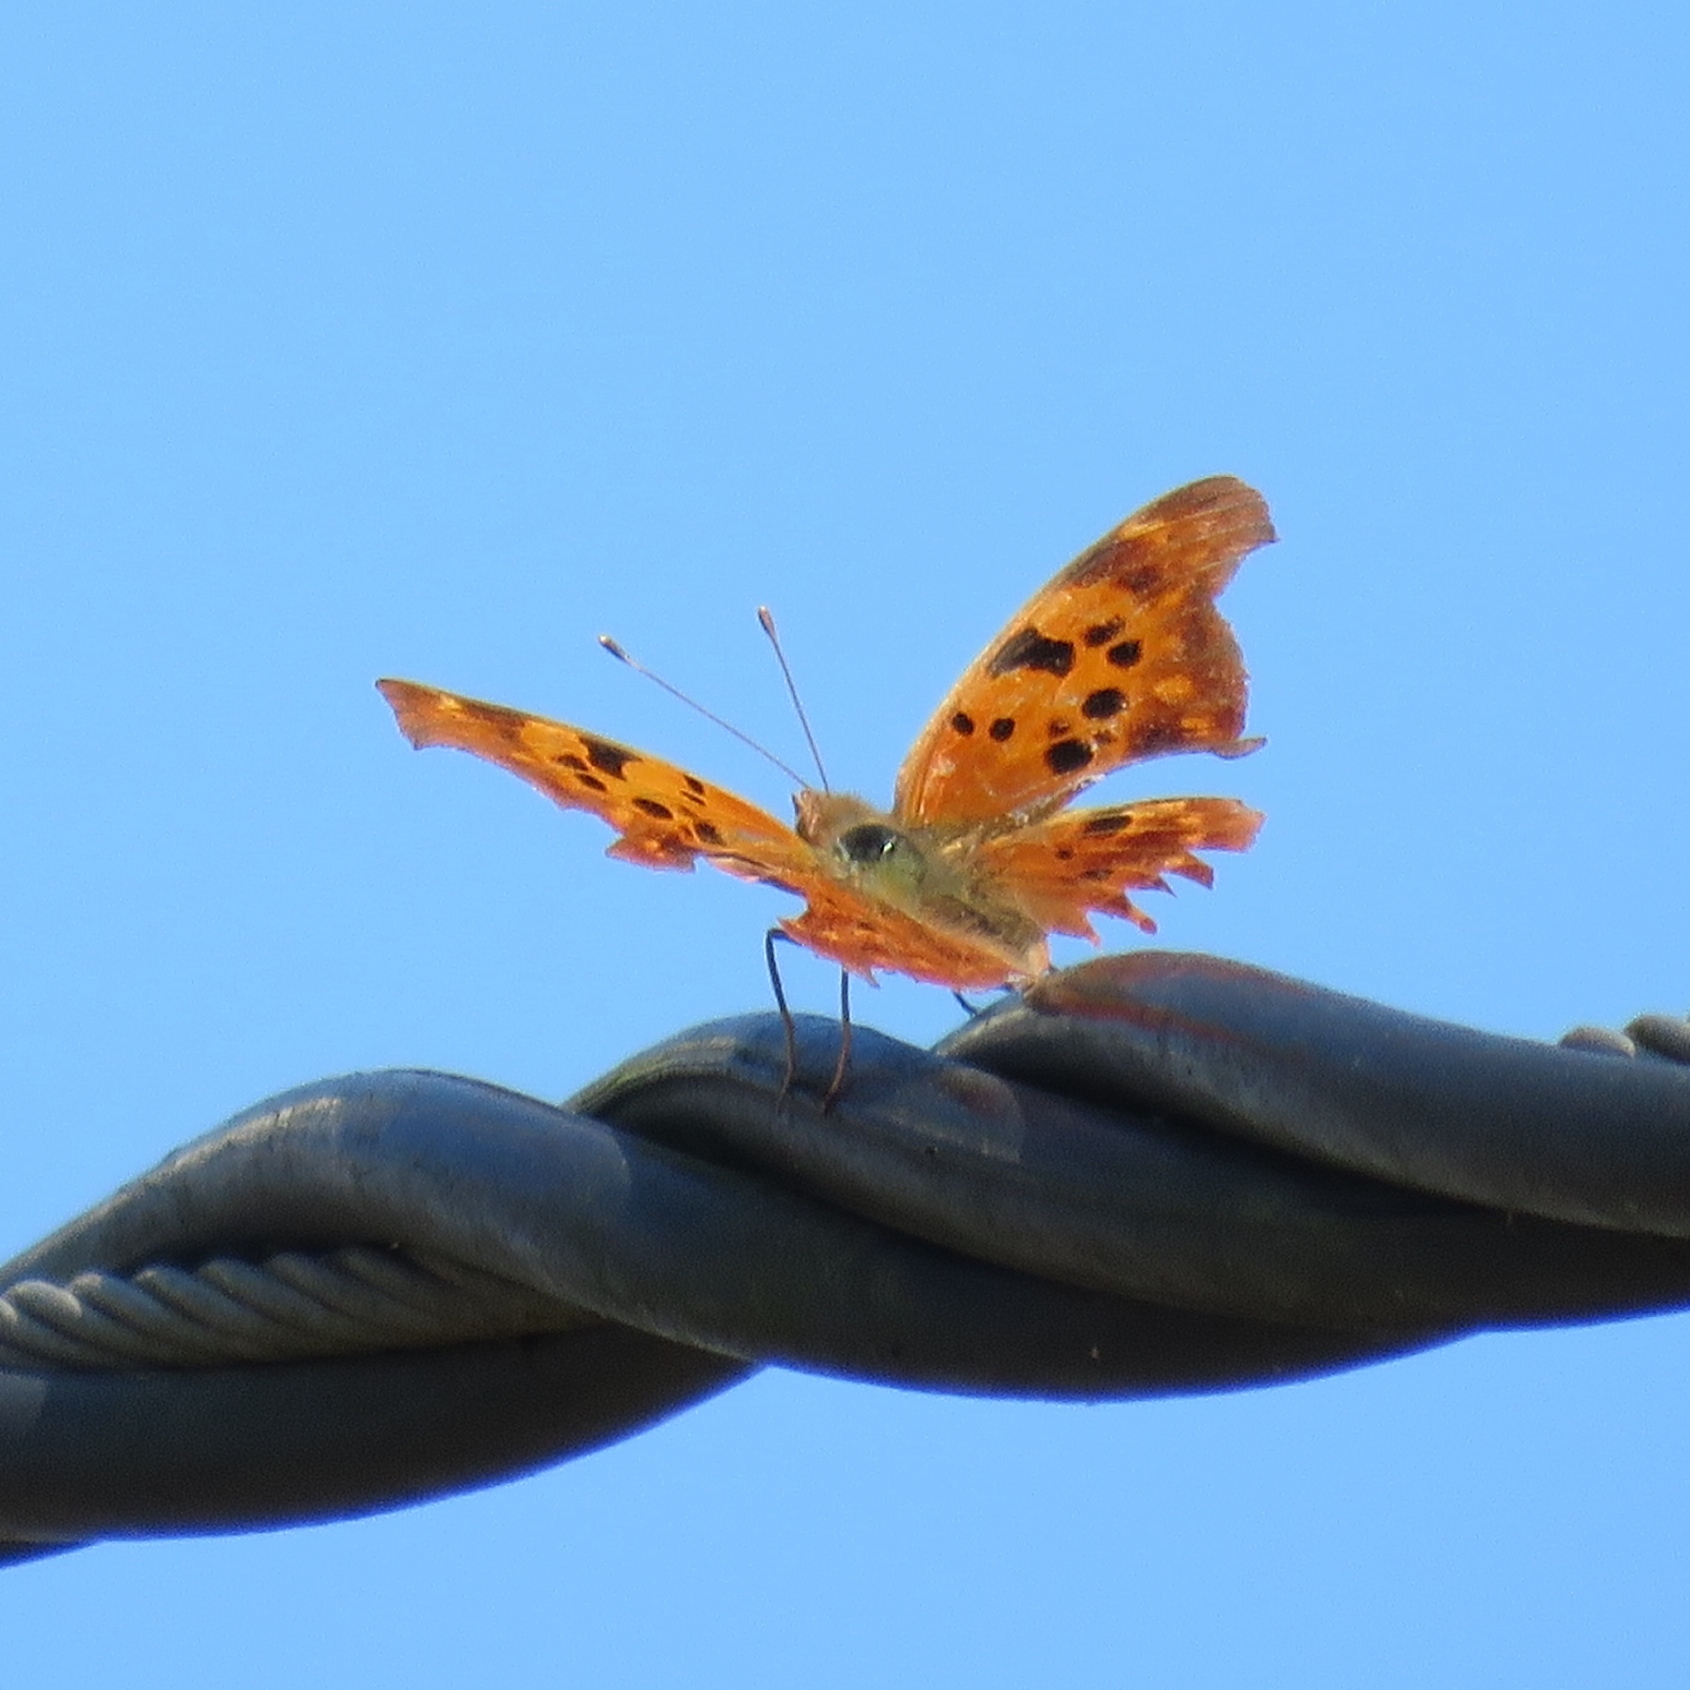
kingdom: Animalia
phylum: Arthropoda
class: Insecta
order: Lepidoptera
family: Nymphalidae
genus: Polygonia
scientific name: Polygonia interrogationis
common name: Question mark
